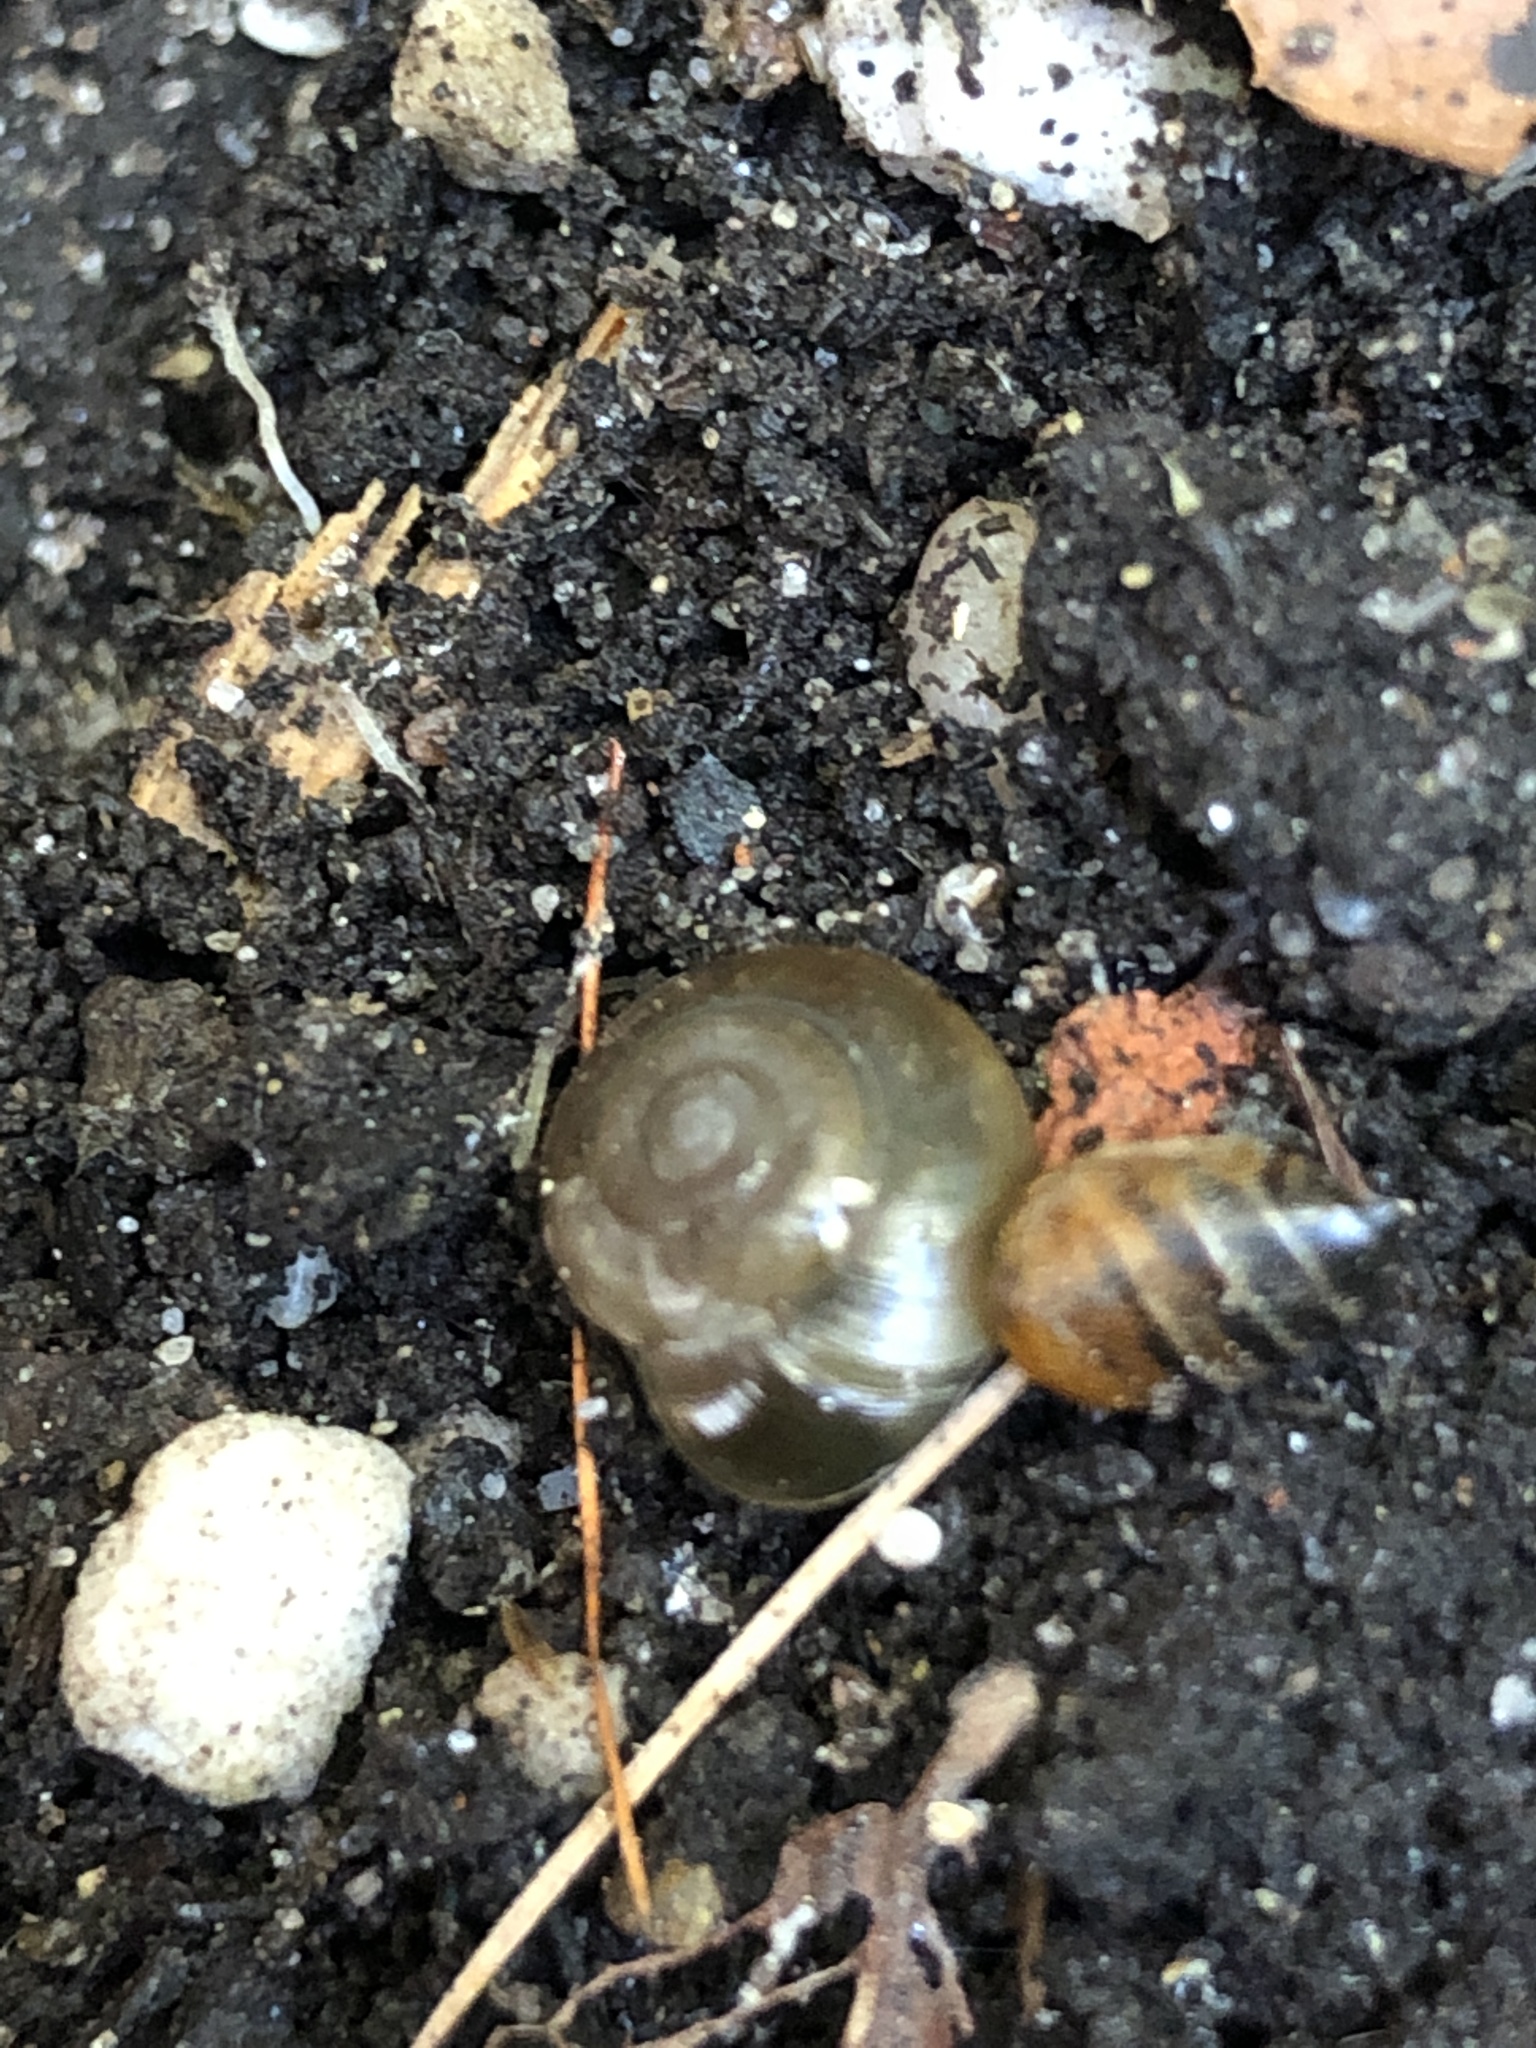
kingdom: Animalia
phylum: Mollusca
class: Gastropoda
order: Stylommatophora
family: Oxychilidae
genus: Oxychilus
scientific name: Oxychilus draparnaudi
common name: Draparnaud's glass snail
